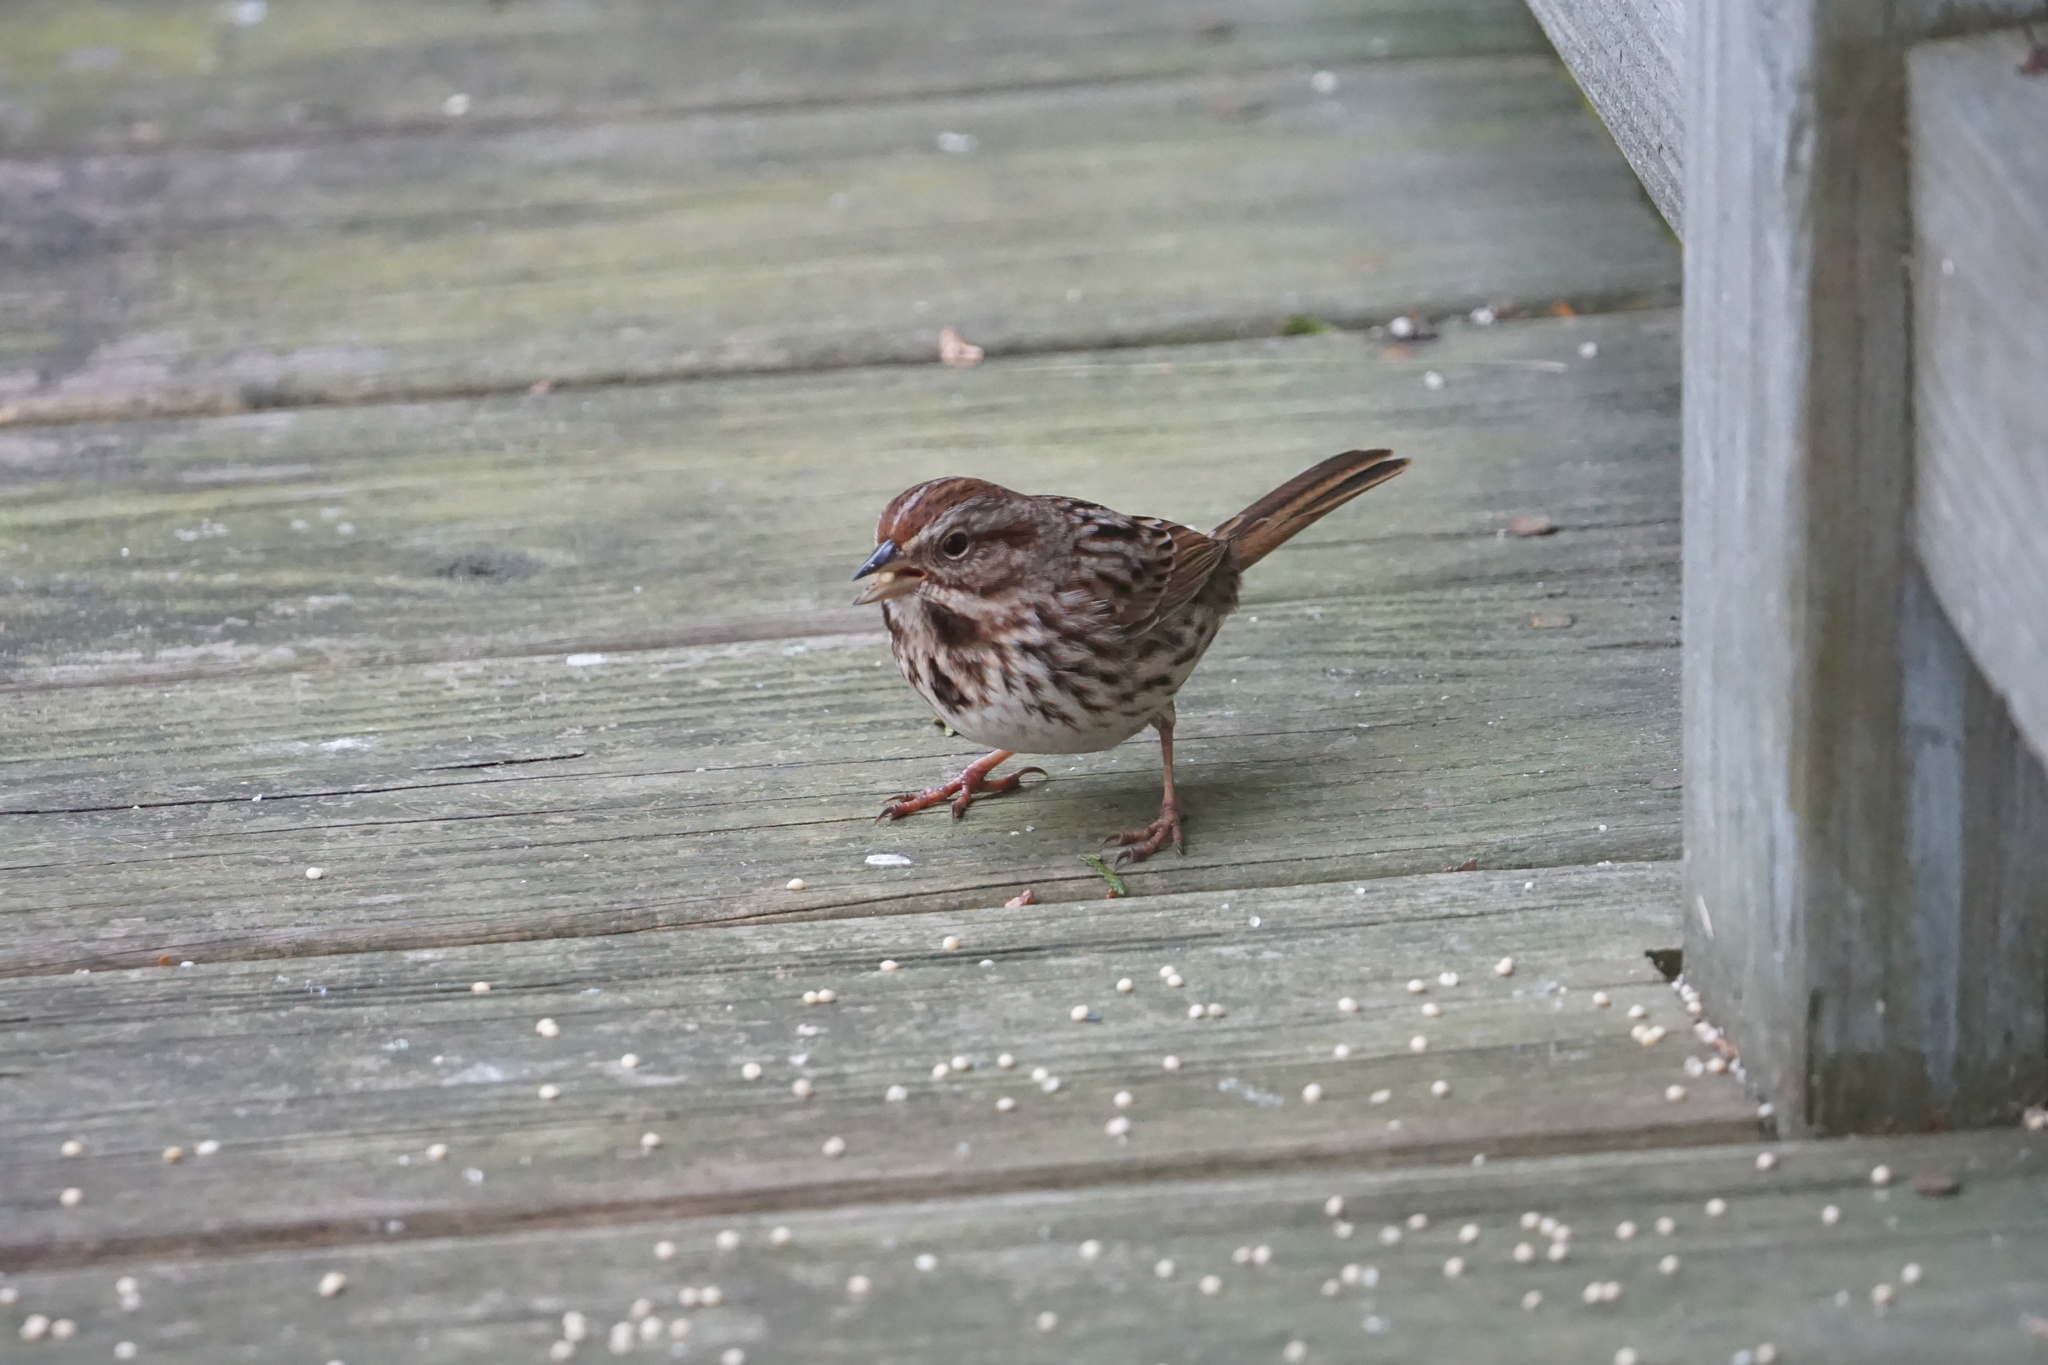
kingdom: Animalia
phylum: Chordata
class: Aves
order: Passeriformes
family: Passerellidae
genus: Melospiza
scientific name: Melospiza melodia
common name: Song sparrow
